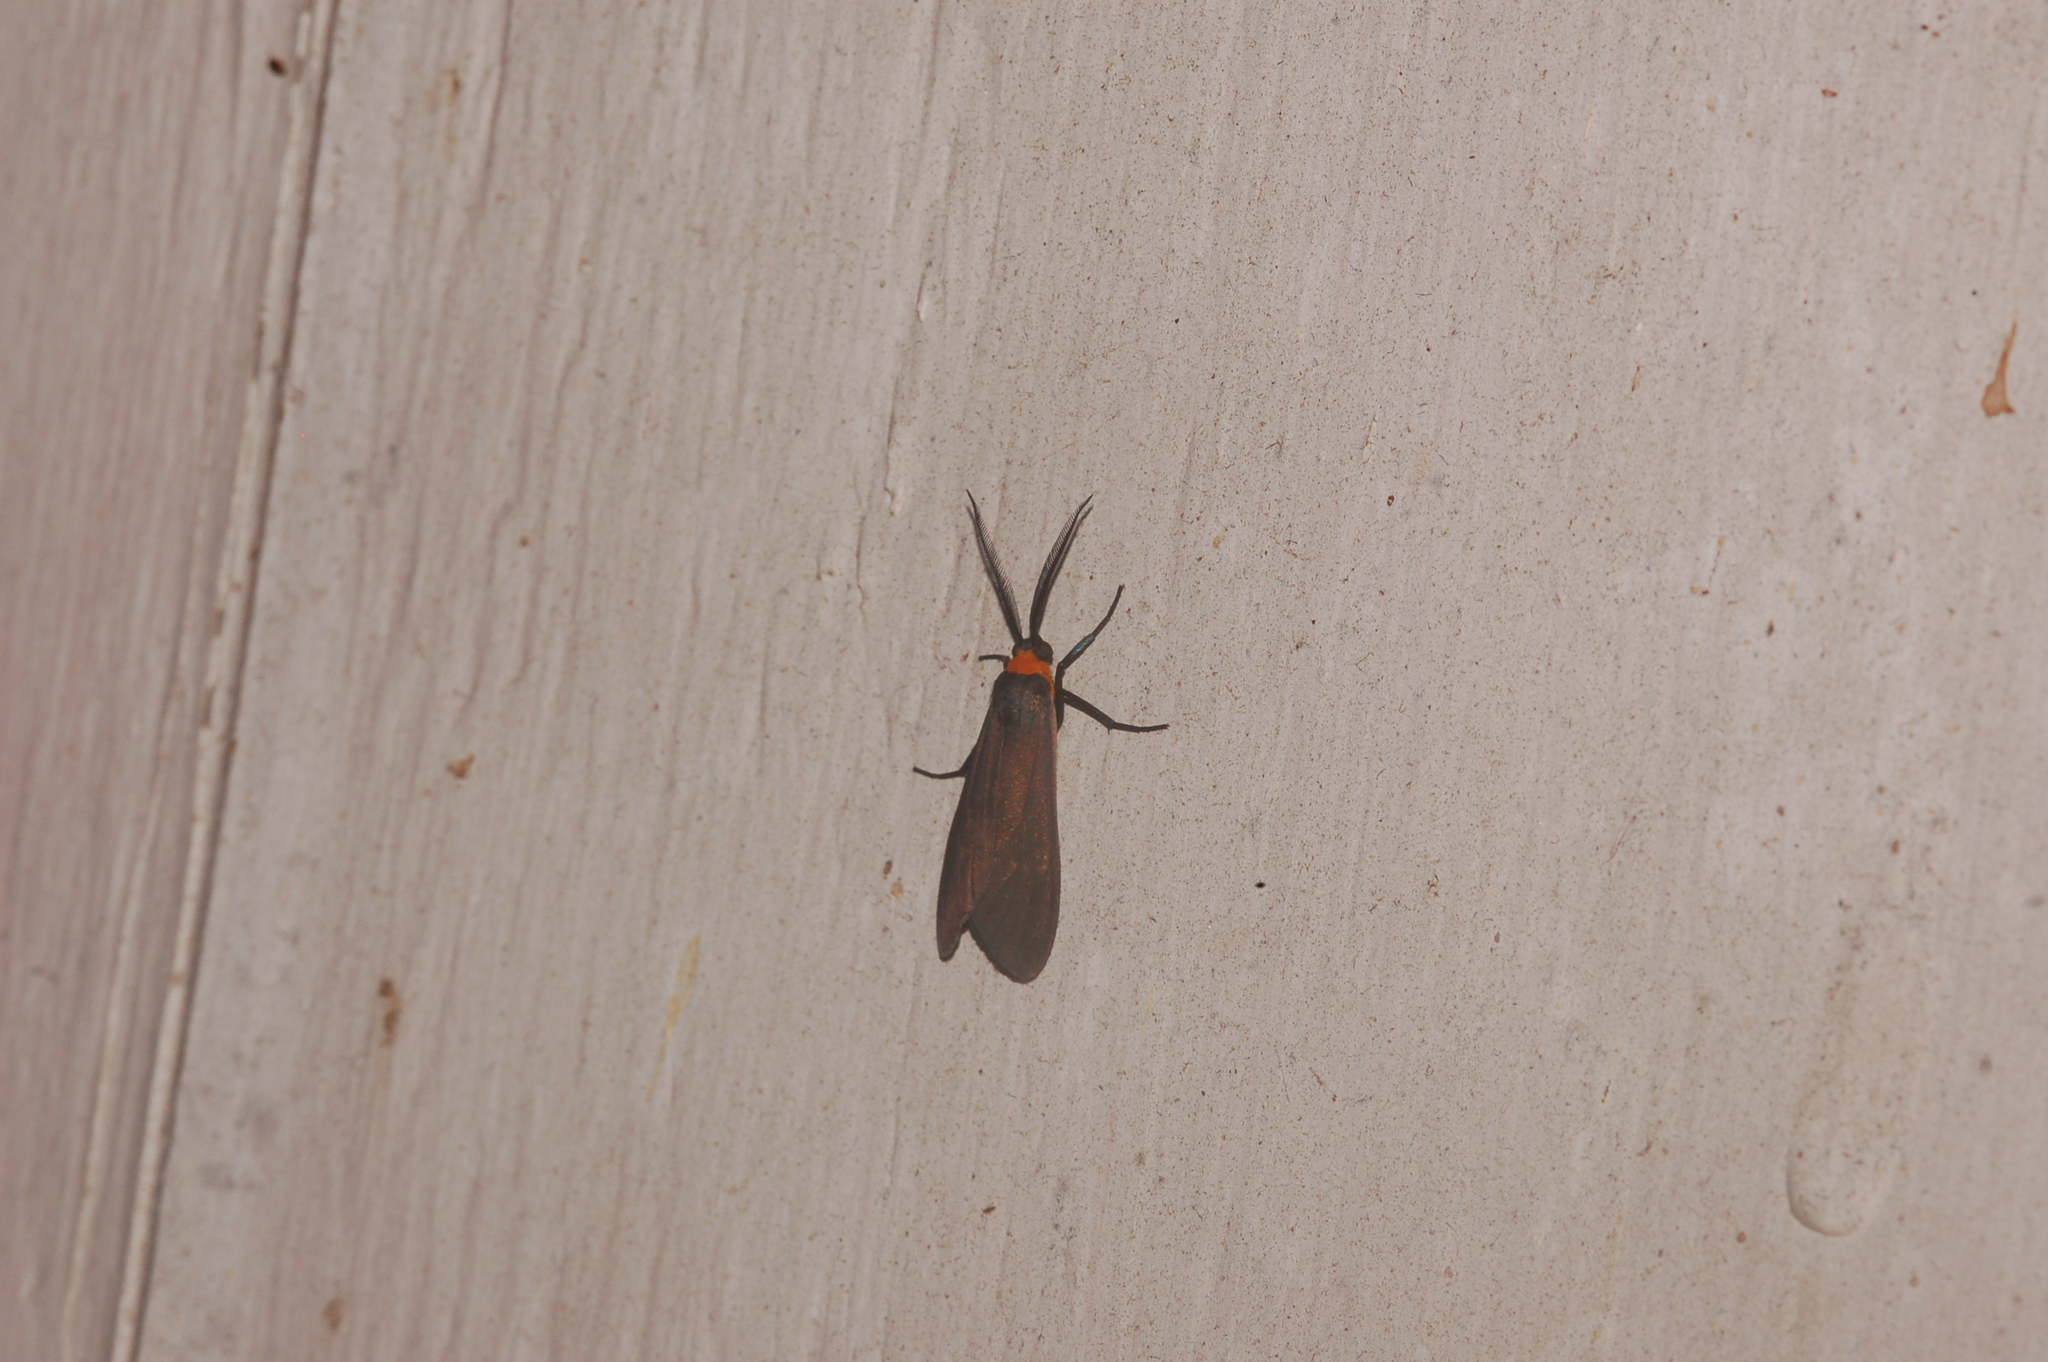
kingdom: Animalia
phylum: Arthropoda
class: Insecta
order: Lepidoptera
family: Erebidae
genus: Cisseps
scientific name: Cisseps fulvicollis
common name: Yellow-collared scape moth
